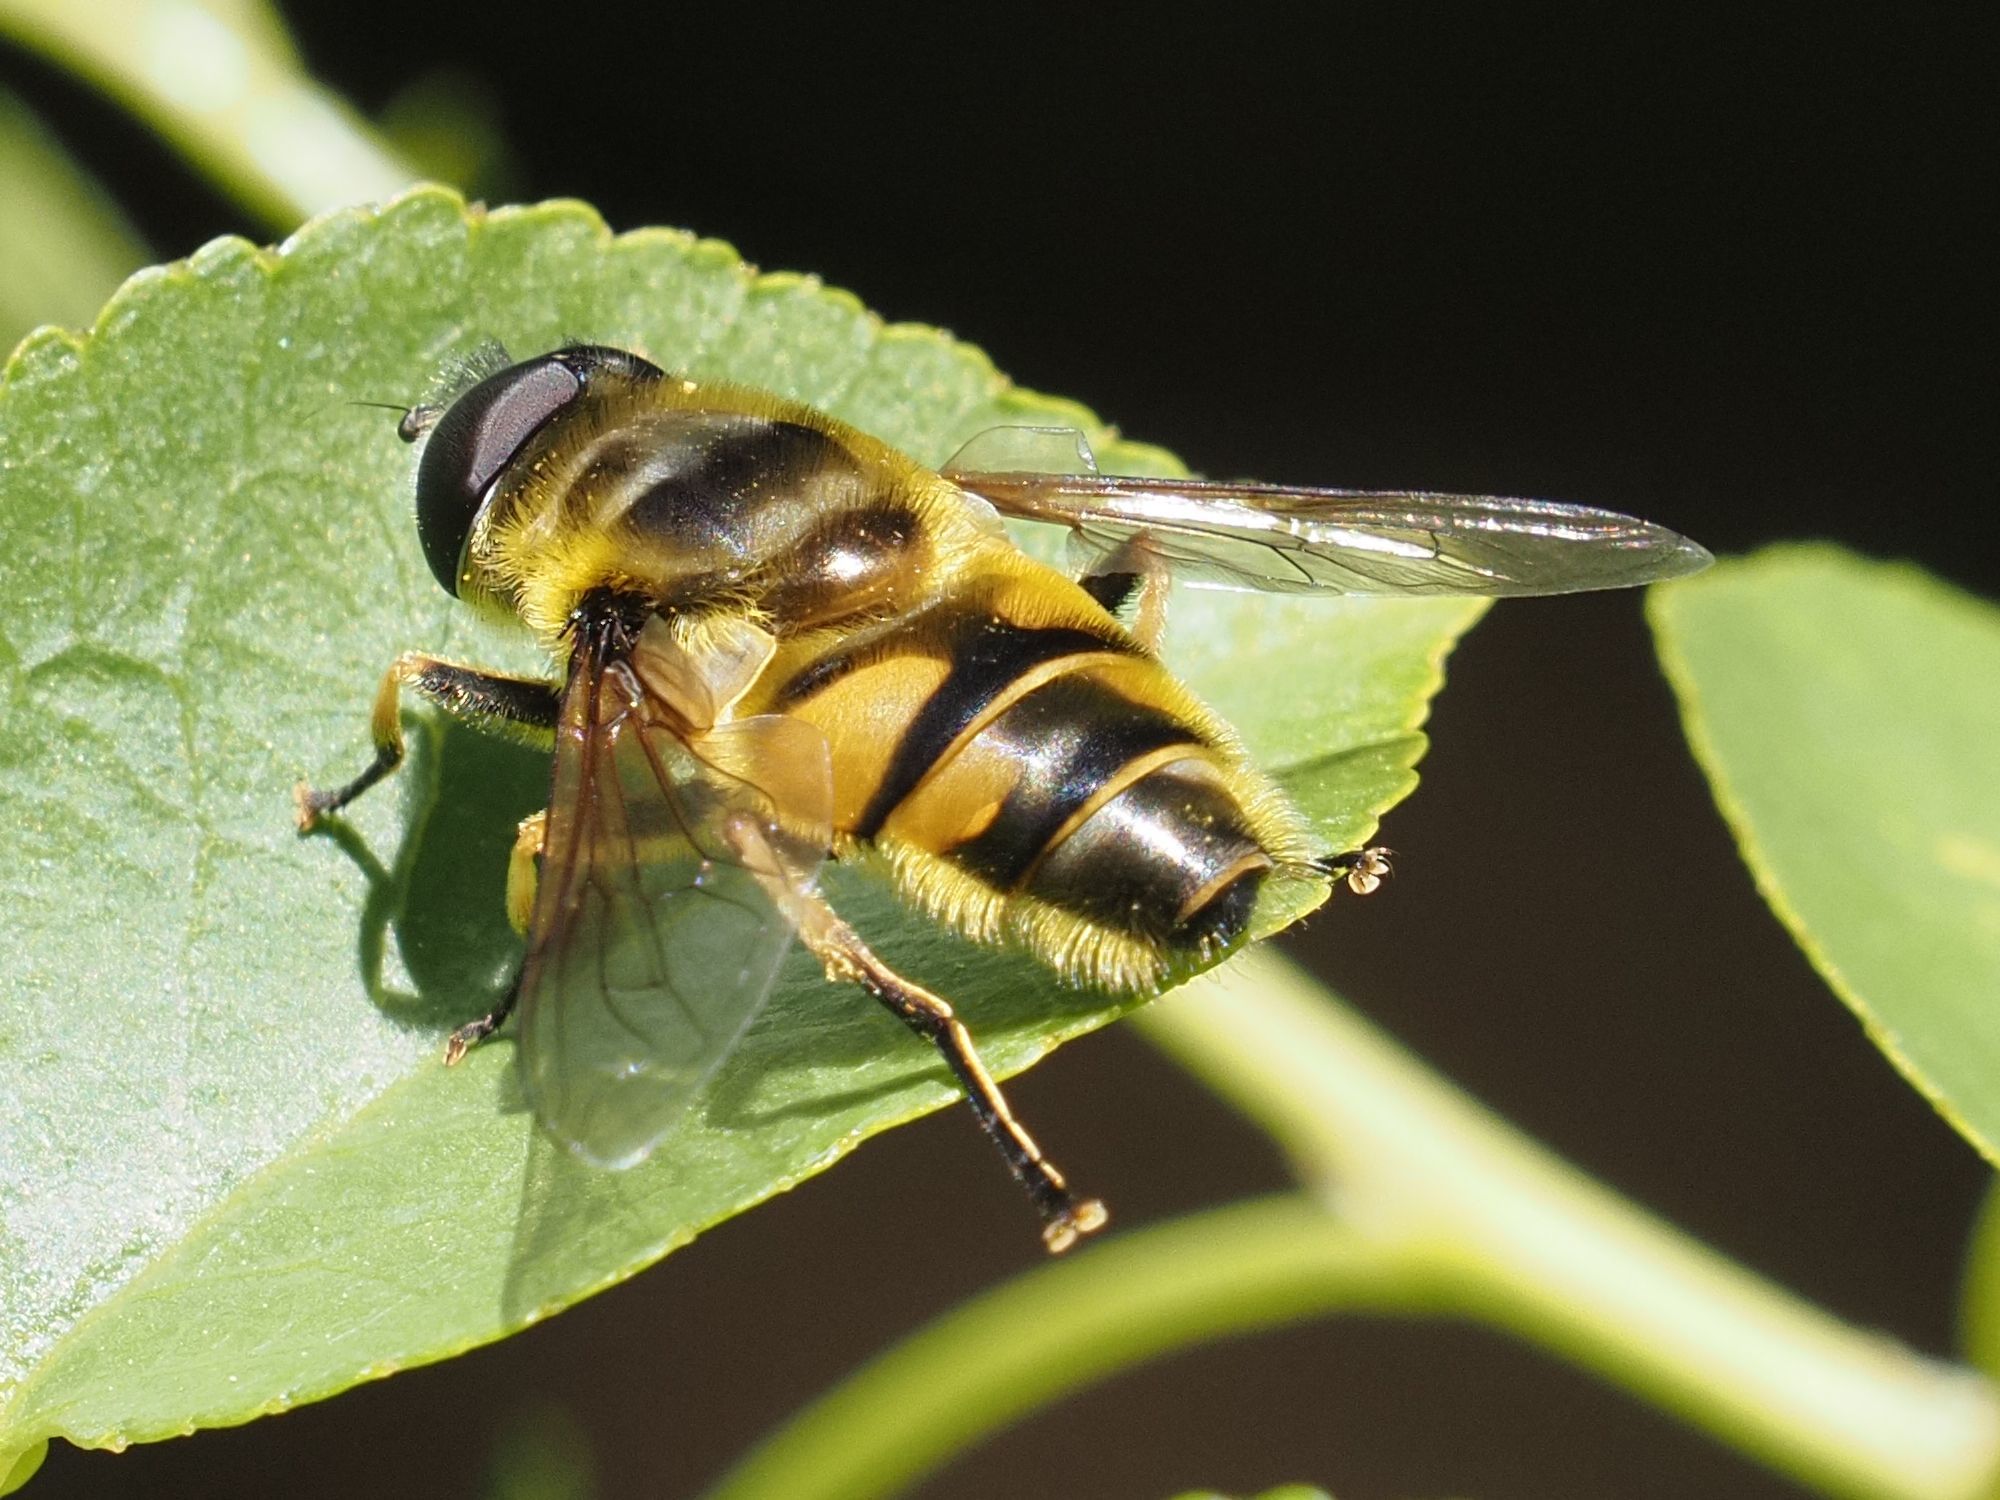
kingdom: Animalia
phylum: Arthropoda
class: Insecta
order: Diptera
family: Syrphidae
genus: Myathropa
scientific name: Myathropa florea
